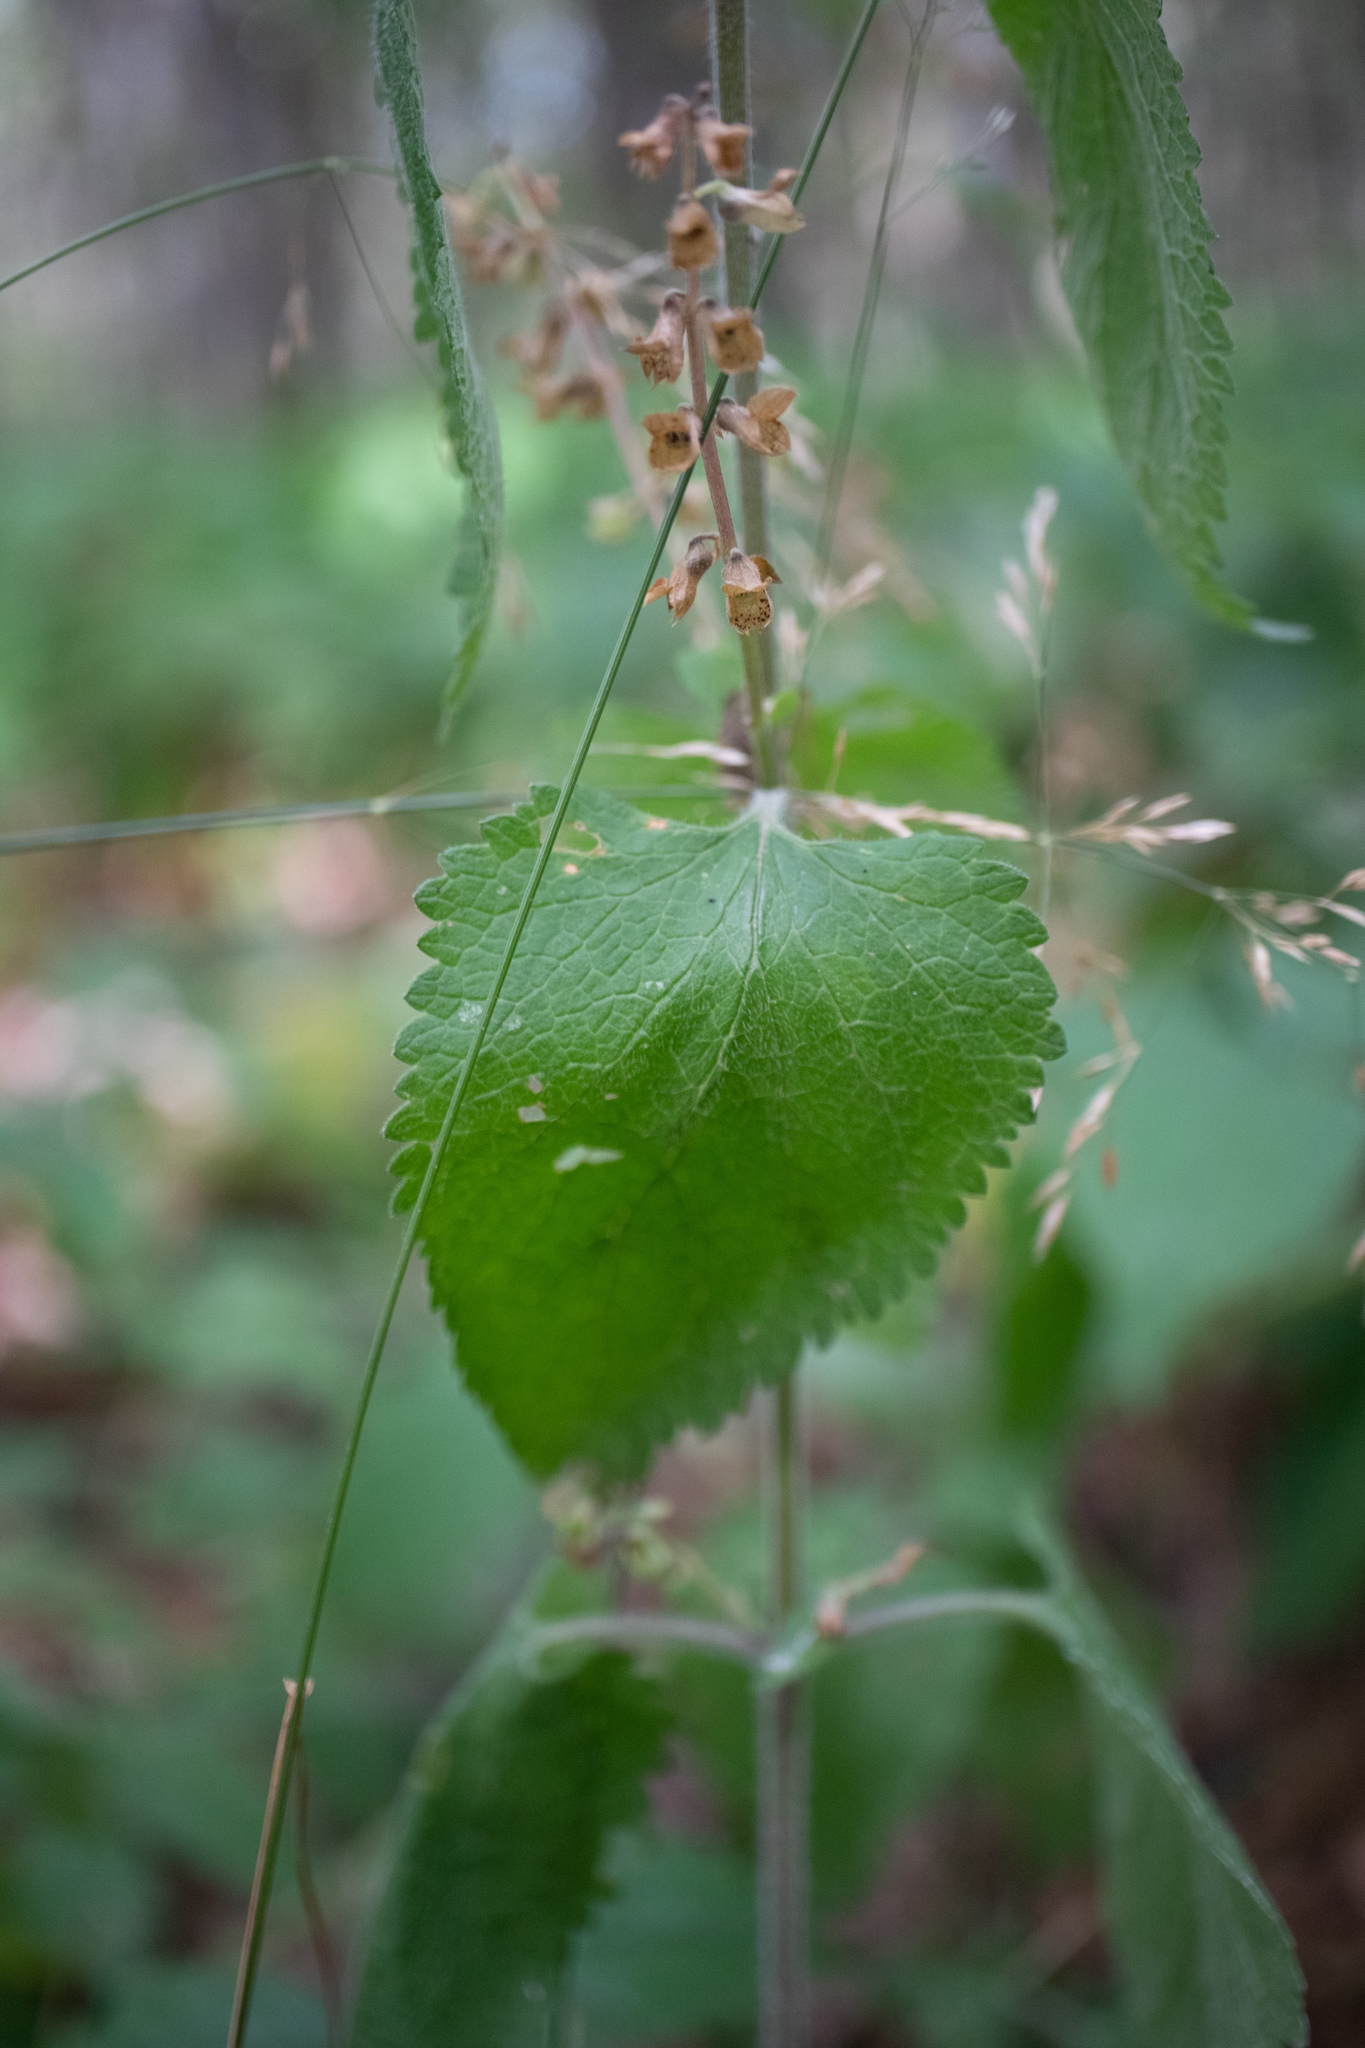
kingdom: Plantae
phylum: Tracheophyta
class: Magnoliopsida
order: Lamiales
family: Lamiaceae
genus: Teucrium
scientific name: Teucrium scorodonia
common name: Woodland germander
